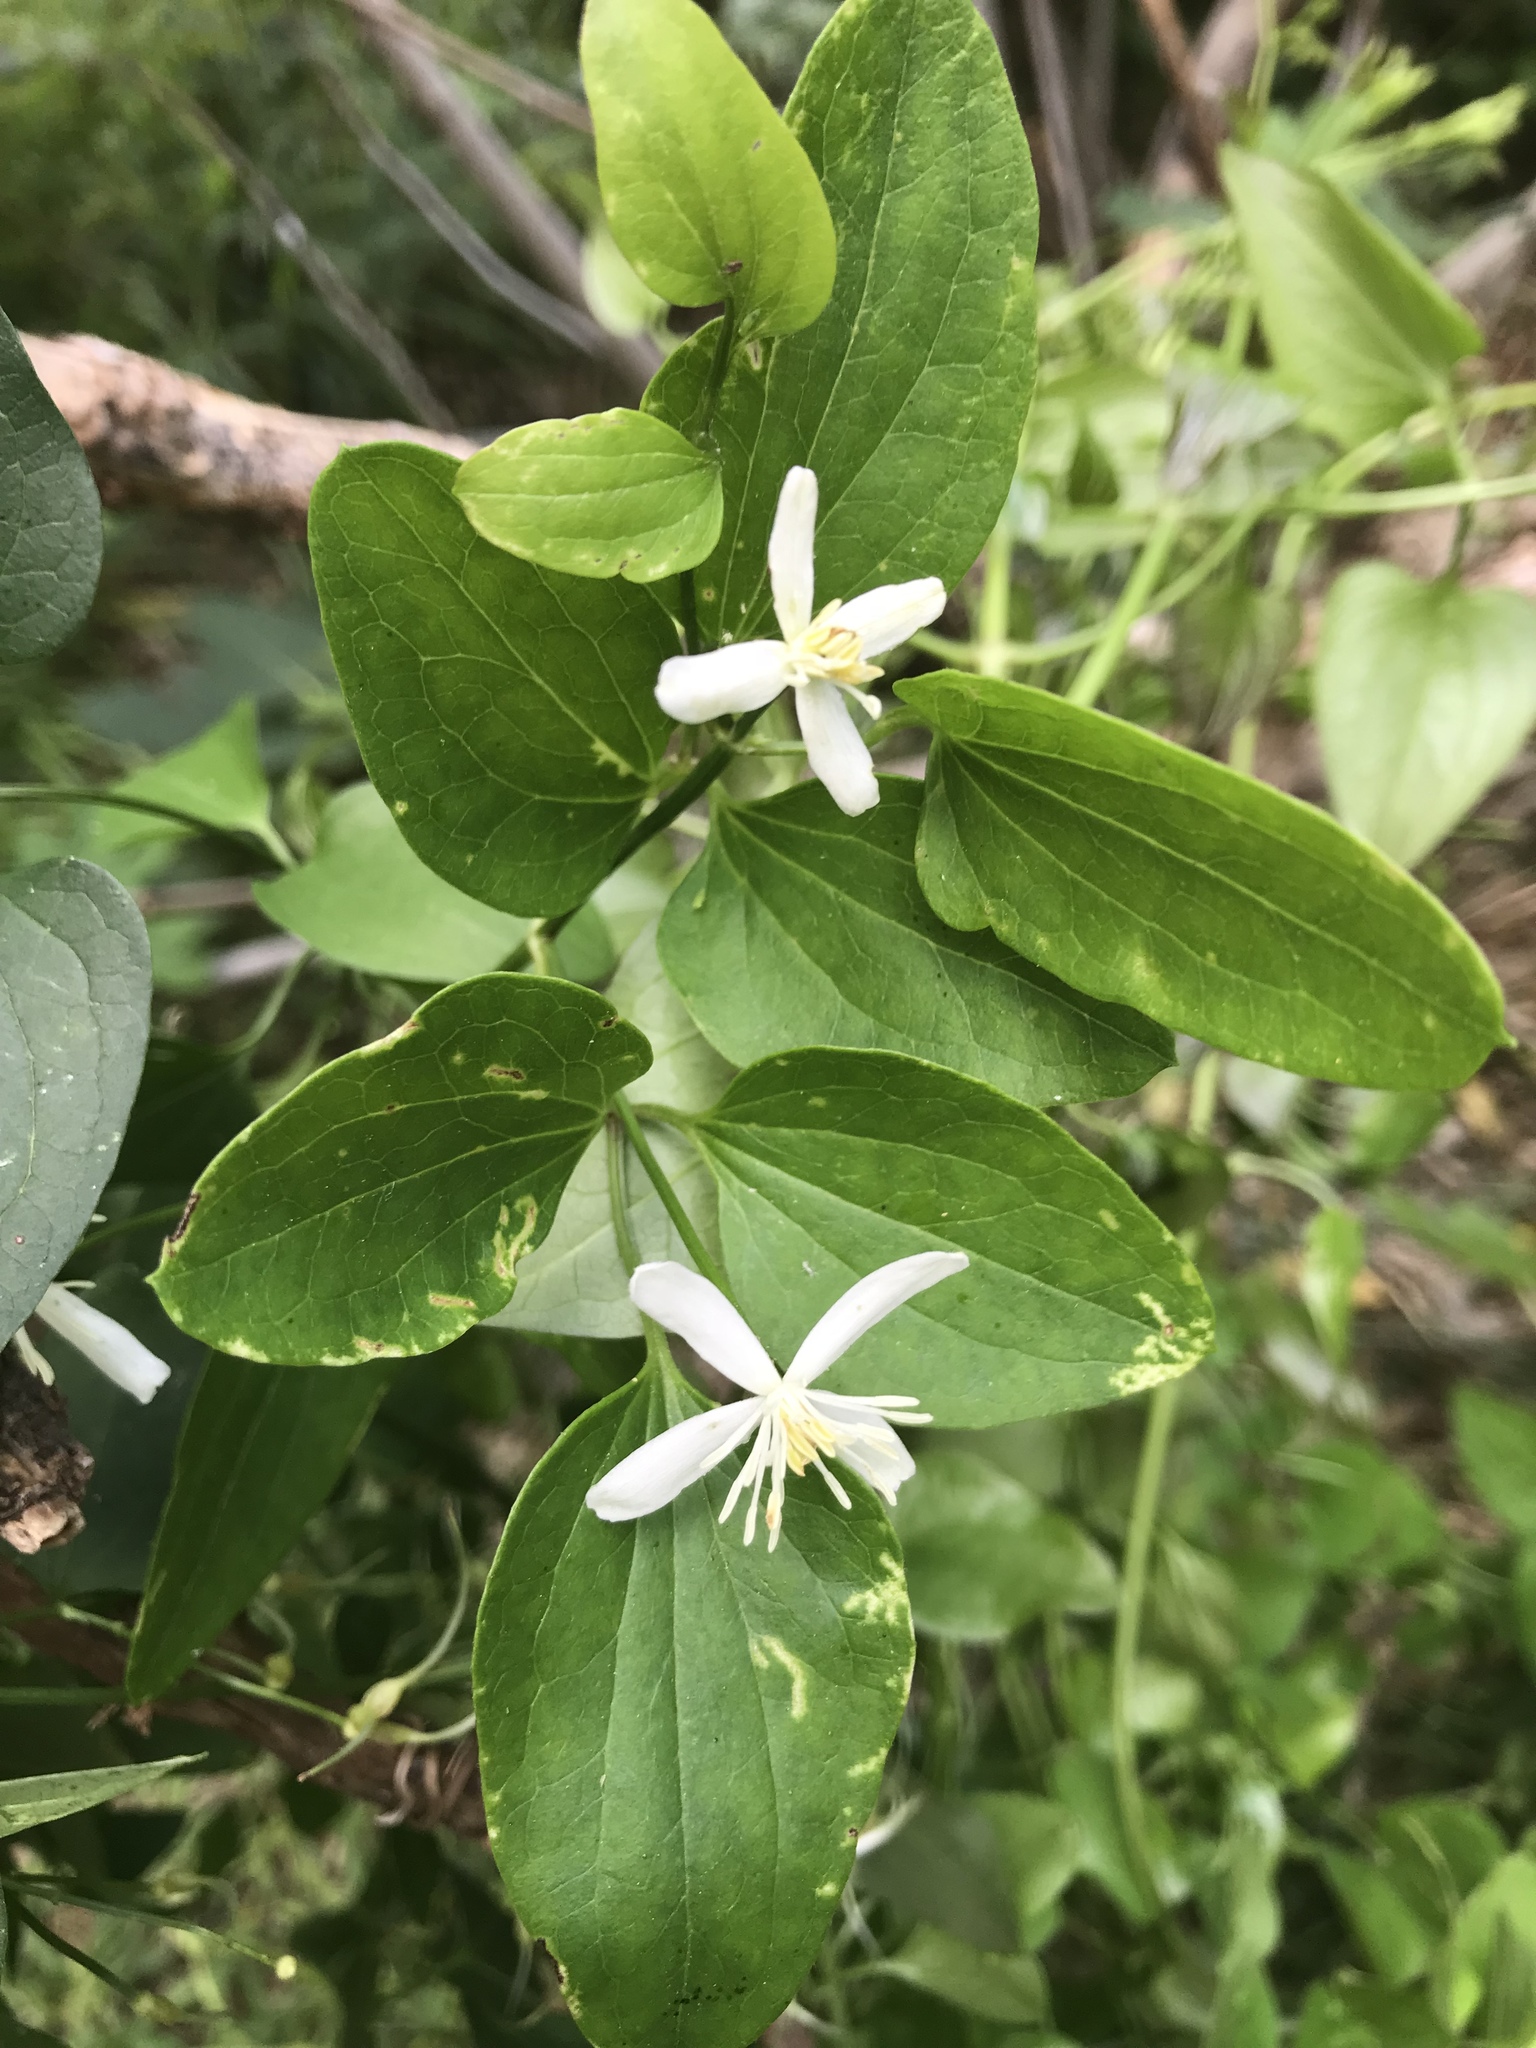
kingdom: Plantae
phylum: Tracheophyta
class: Magnoliopsida
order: Ranunculales
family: Ranunculaceae
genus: Clematis
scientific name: Clematis terniflora
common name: Sweet autumn clematis
